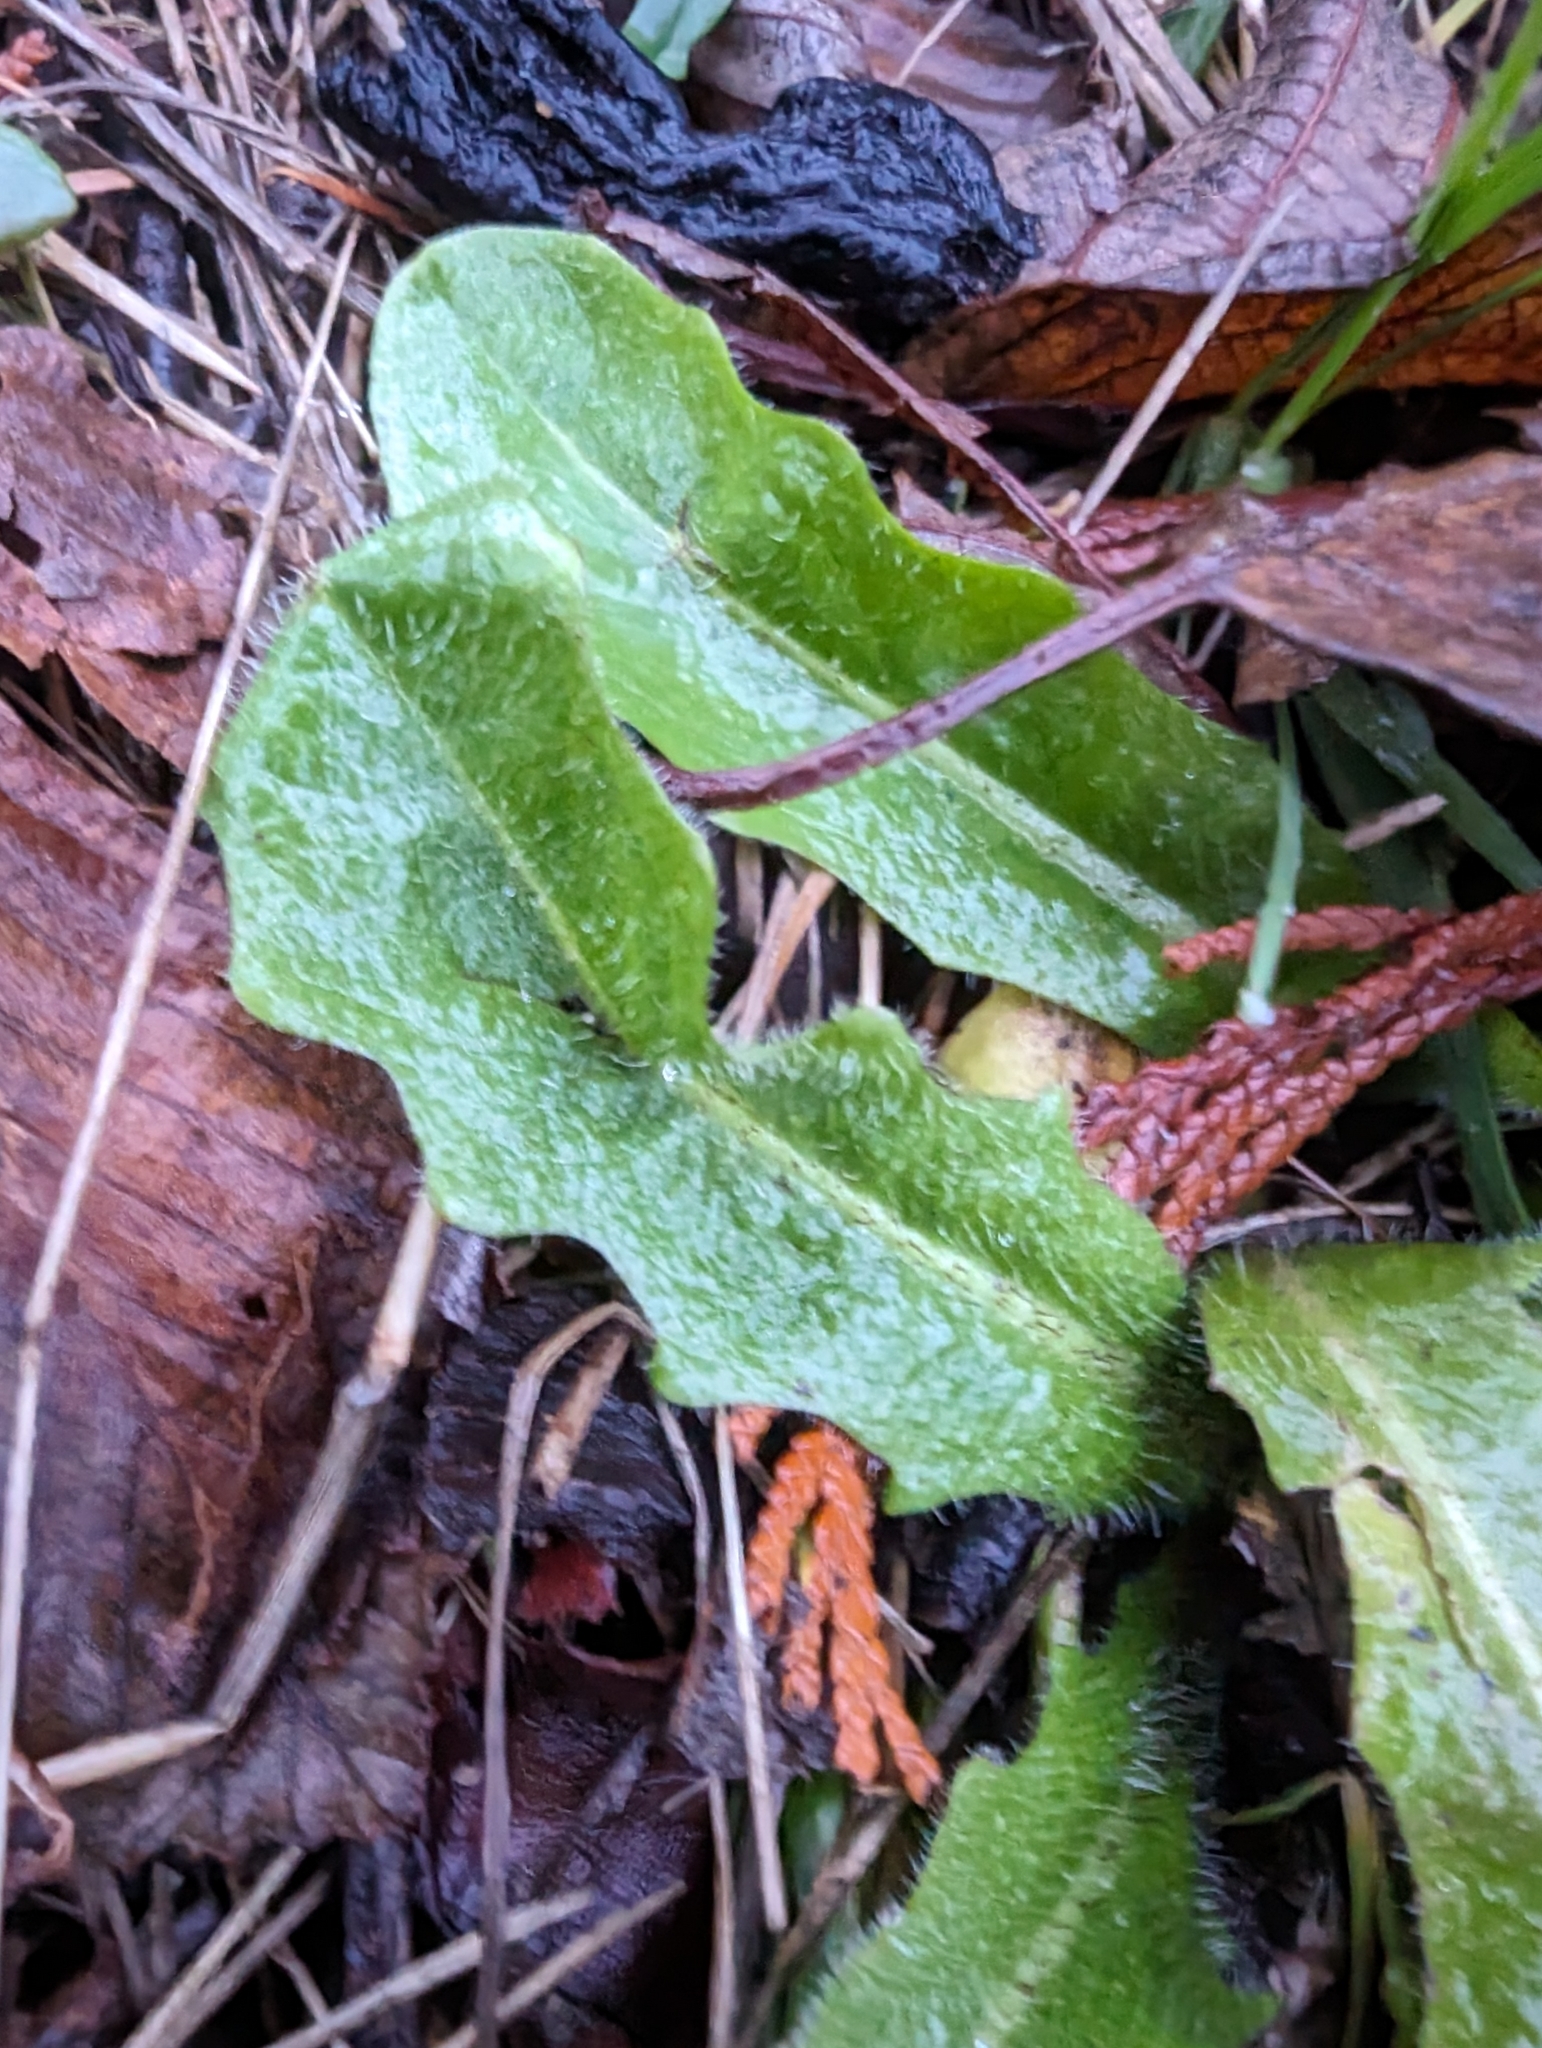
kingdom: Plantae
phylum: Tracheophyta
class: Magnoliopsida
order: Asterales
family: Asteraceae
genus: Hypochaeris
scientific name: Hypochaeris radicata
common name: Flatweed
